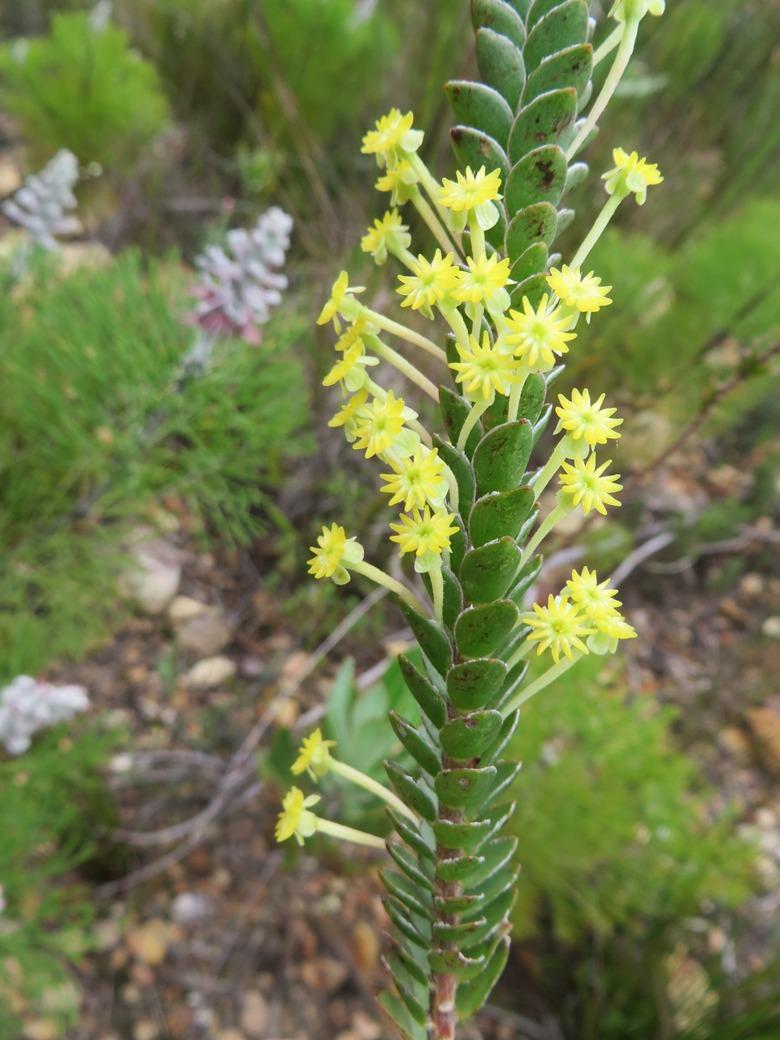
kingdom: Plantae
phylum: Tracheophyta
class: Magnoliopsida
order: Malvales
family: Thymelaeaceae
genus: Struthiola
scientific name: Struthiola argentea
